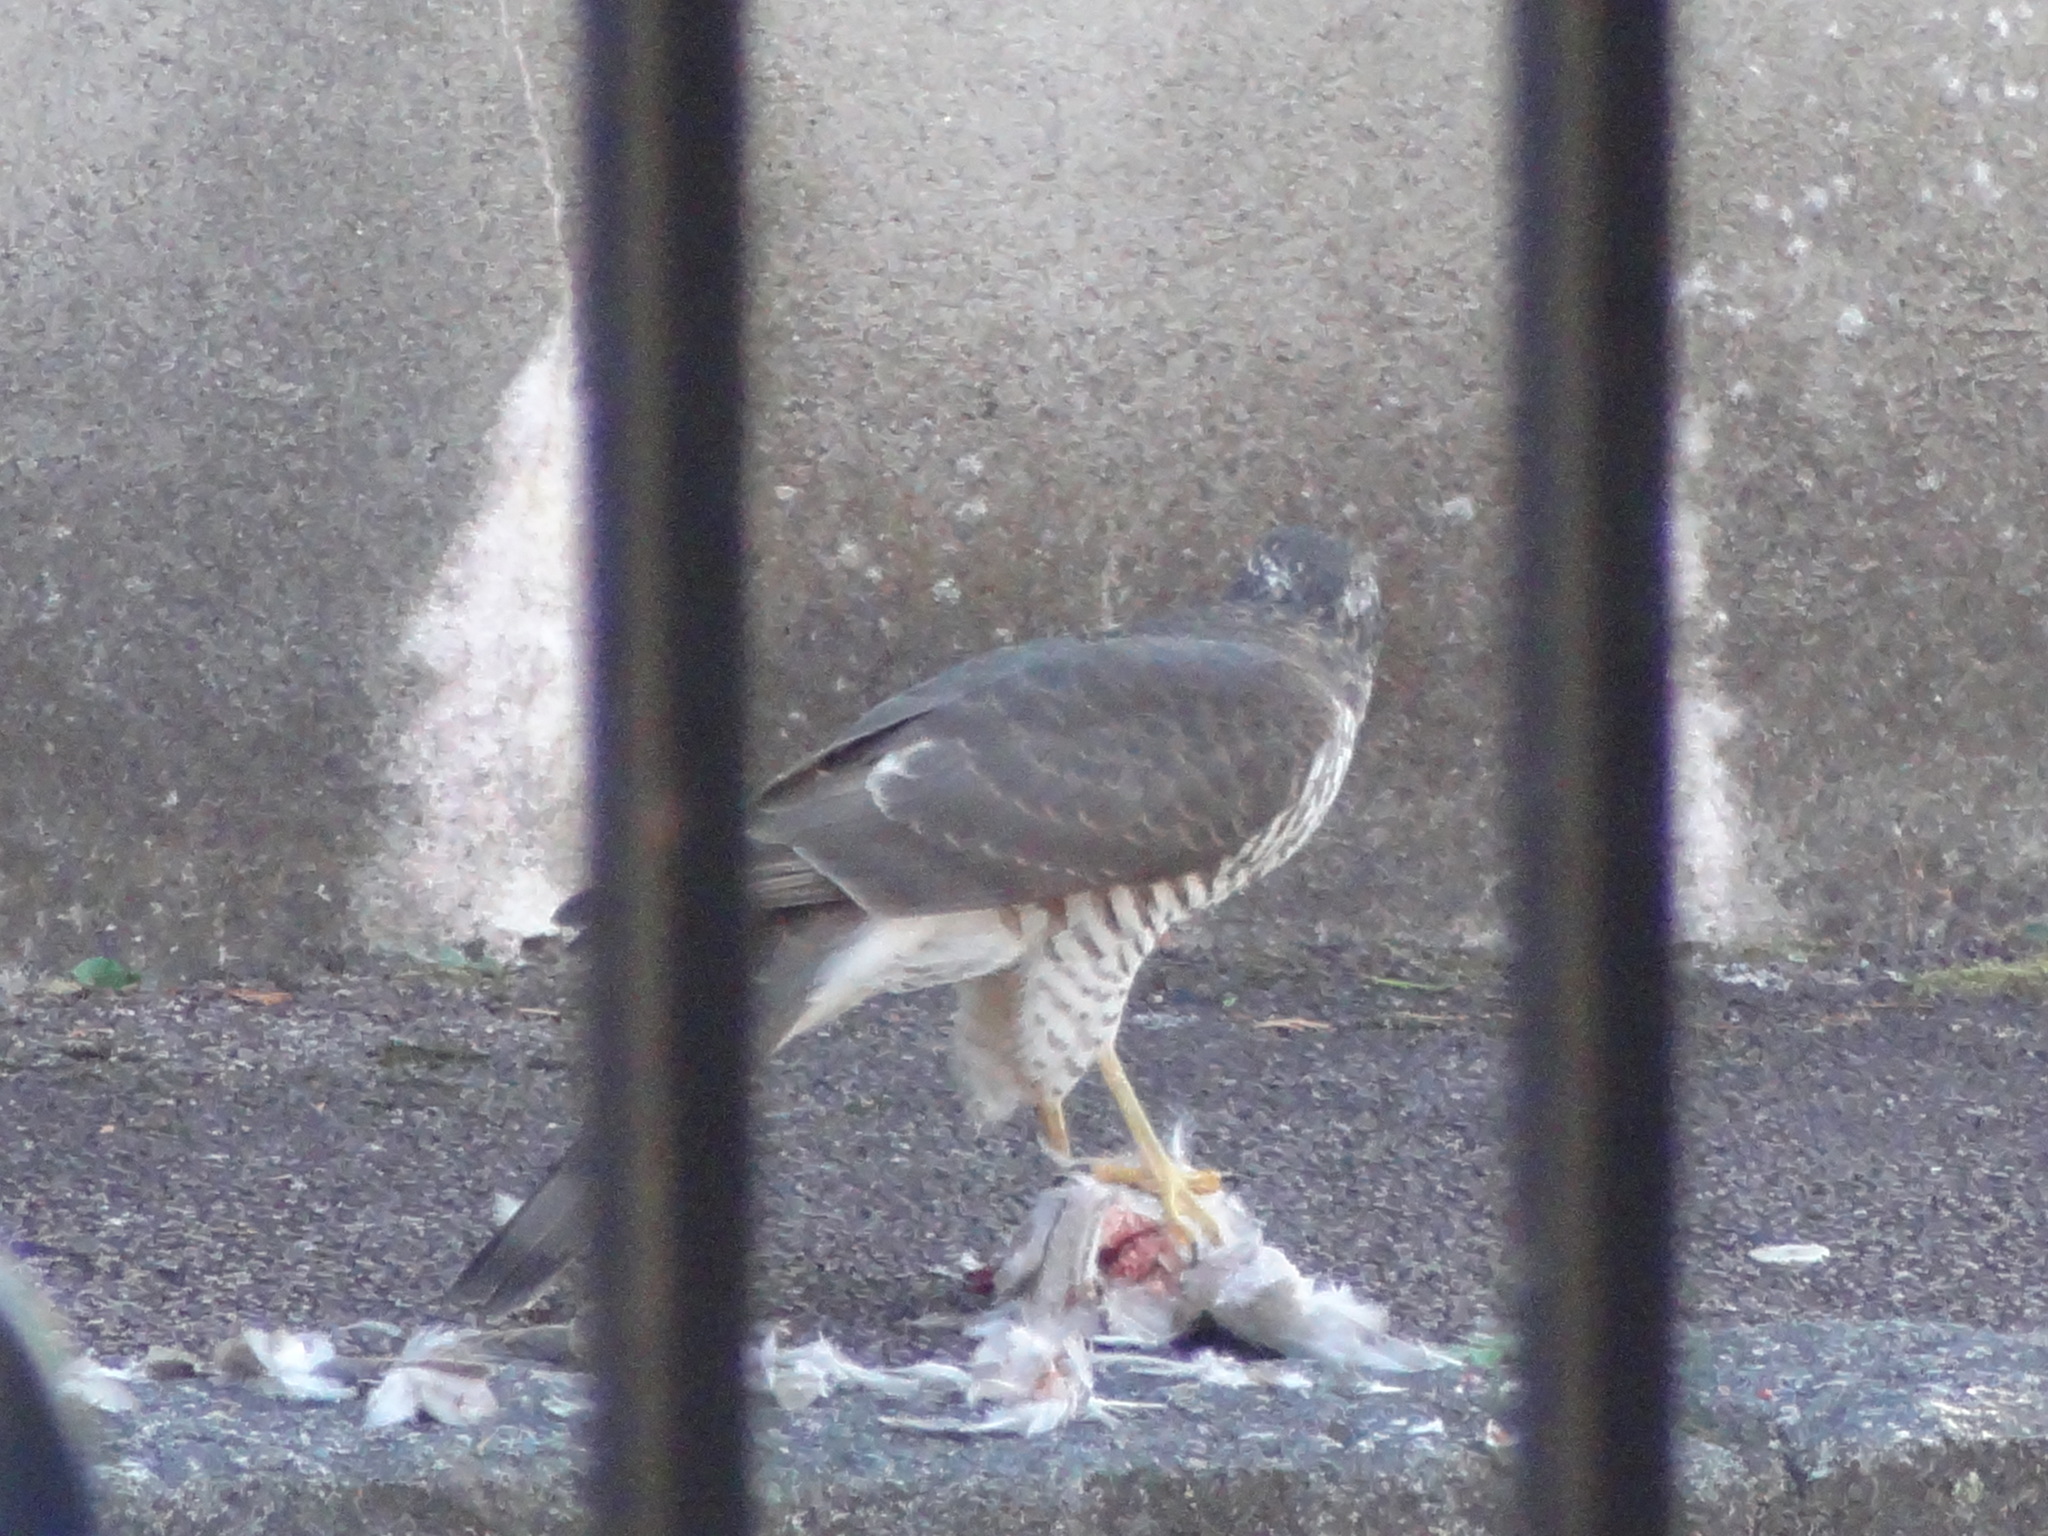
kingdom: Animalia
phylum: Chordata
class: Aves
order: Accipitriformes
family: Accipitridae
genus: Accipiter
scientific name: Accipiter nisus
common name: Eurasian sparrowhawk
